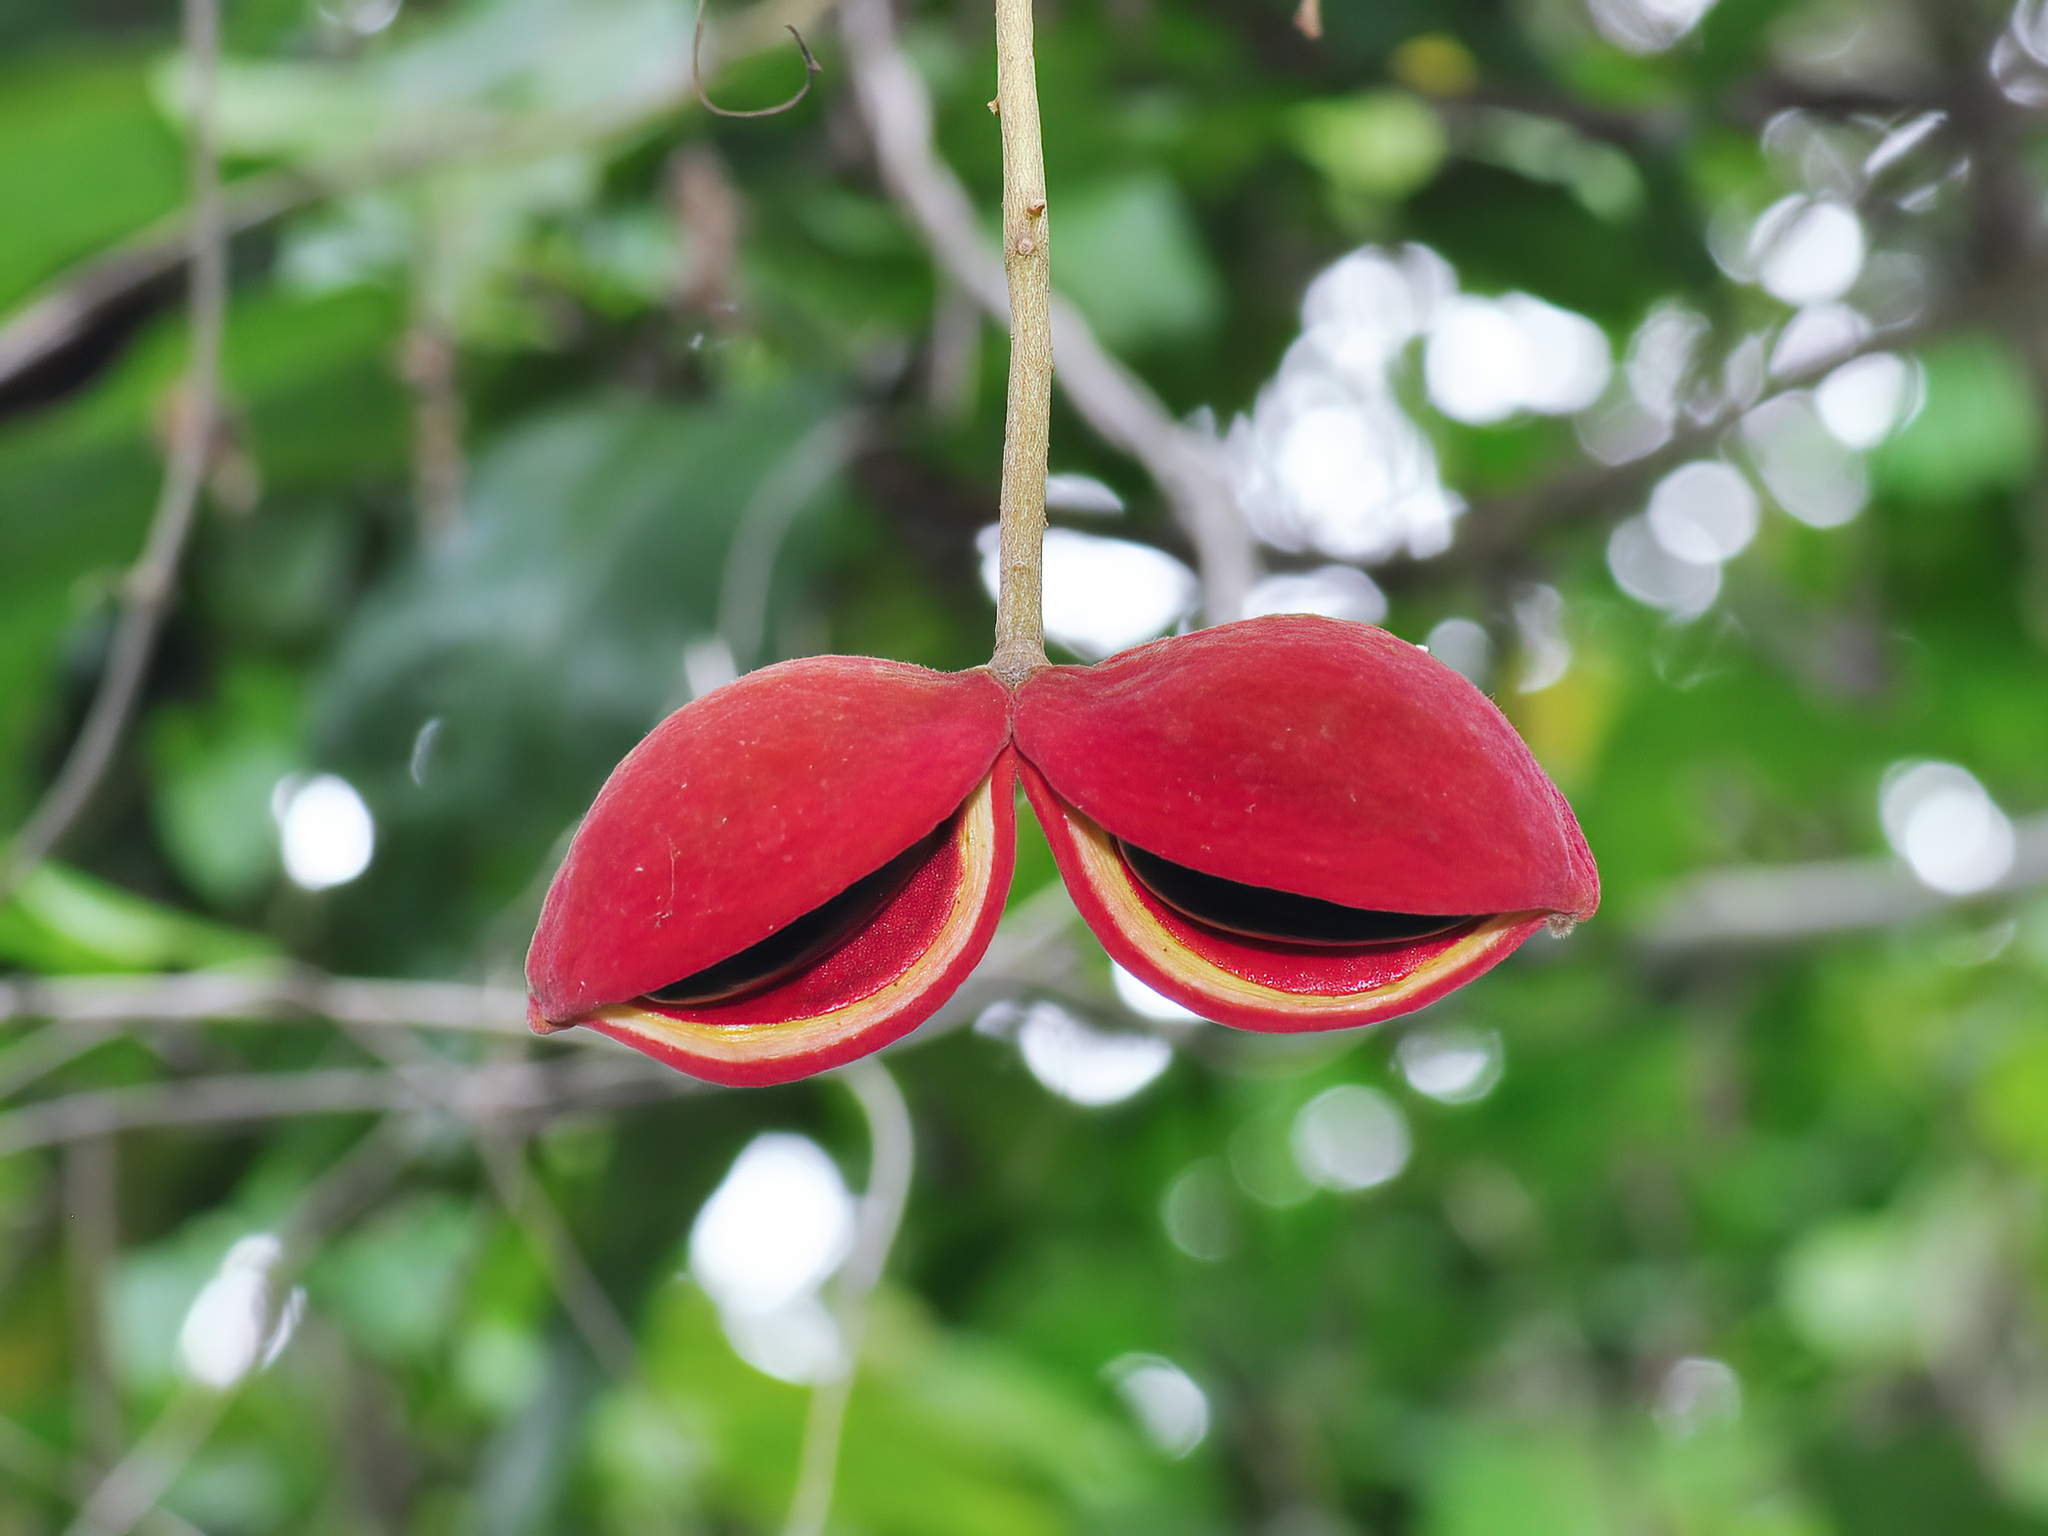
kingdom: Plantae
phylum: Tracheophyta
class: Magnoliopsida
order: Malvales
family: Malvaceae
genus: Sterculia
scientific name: Sterculia monosperma
